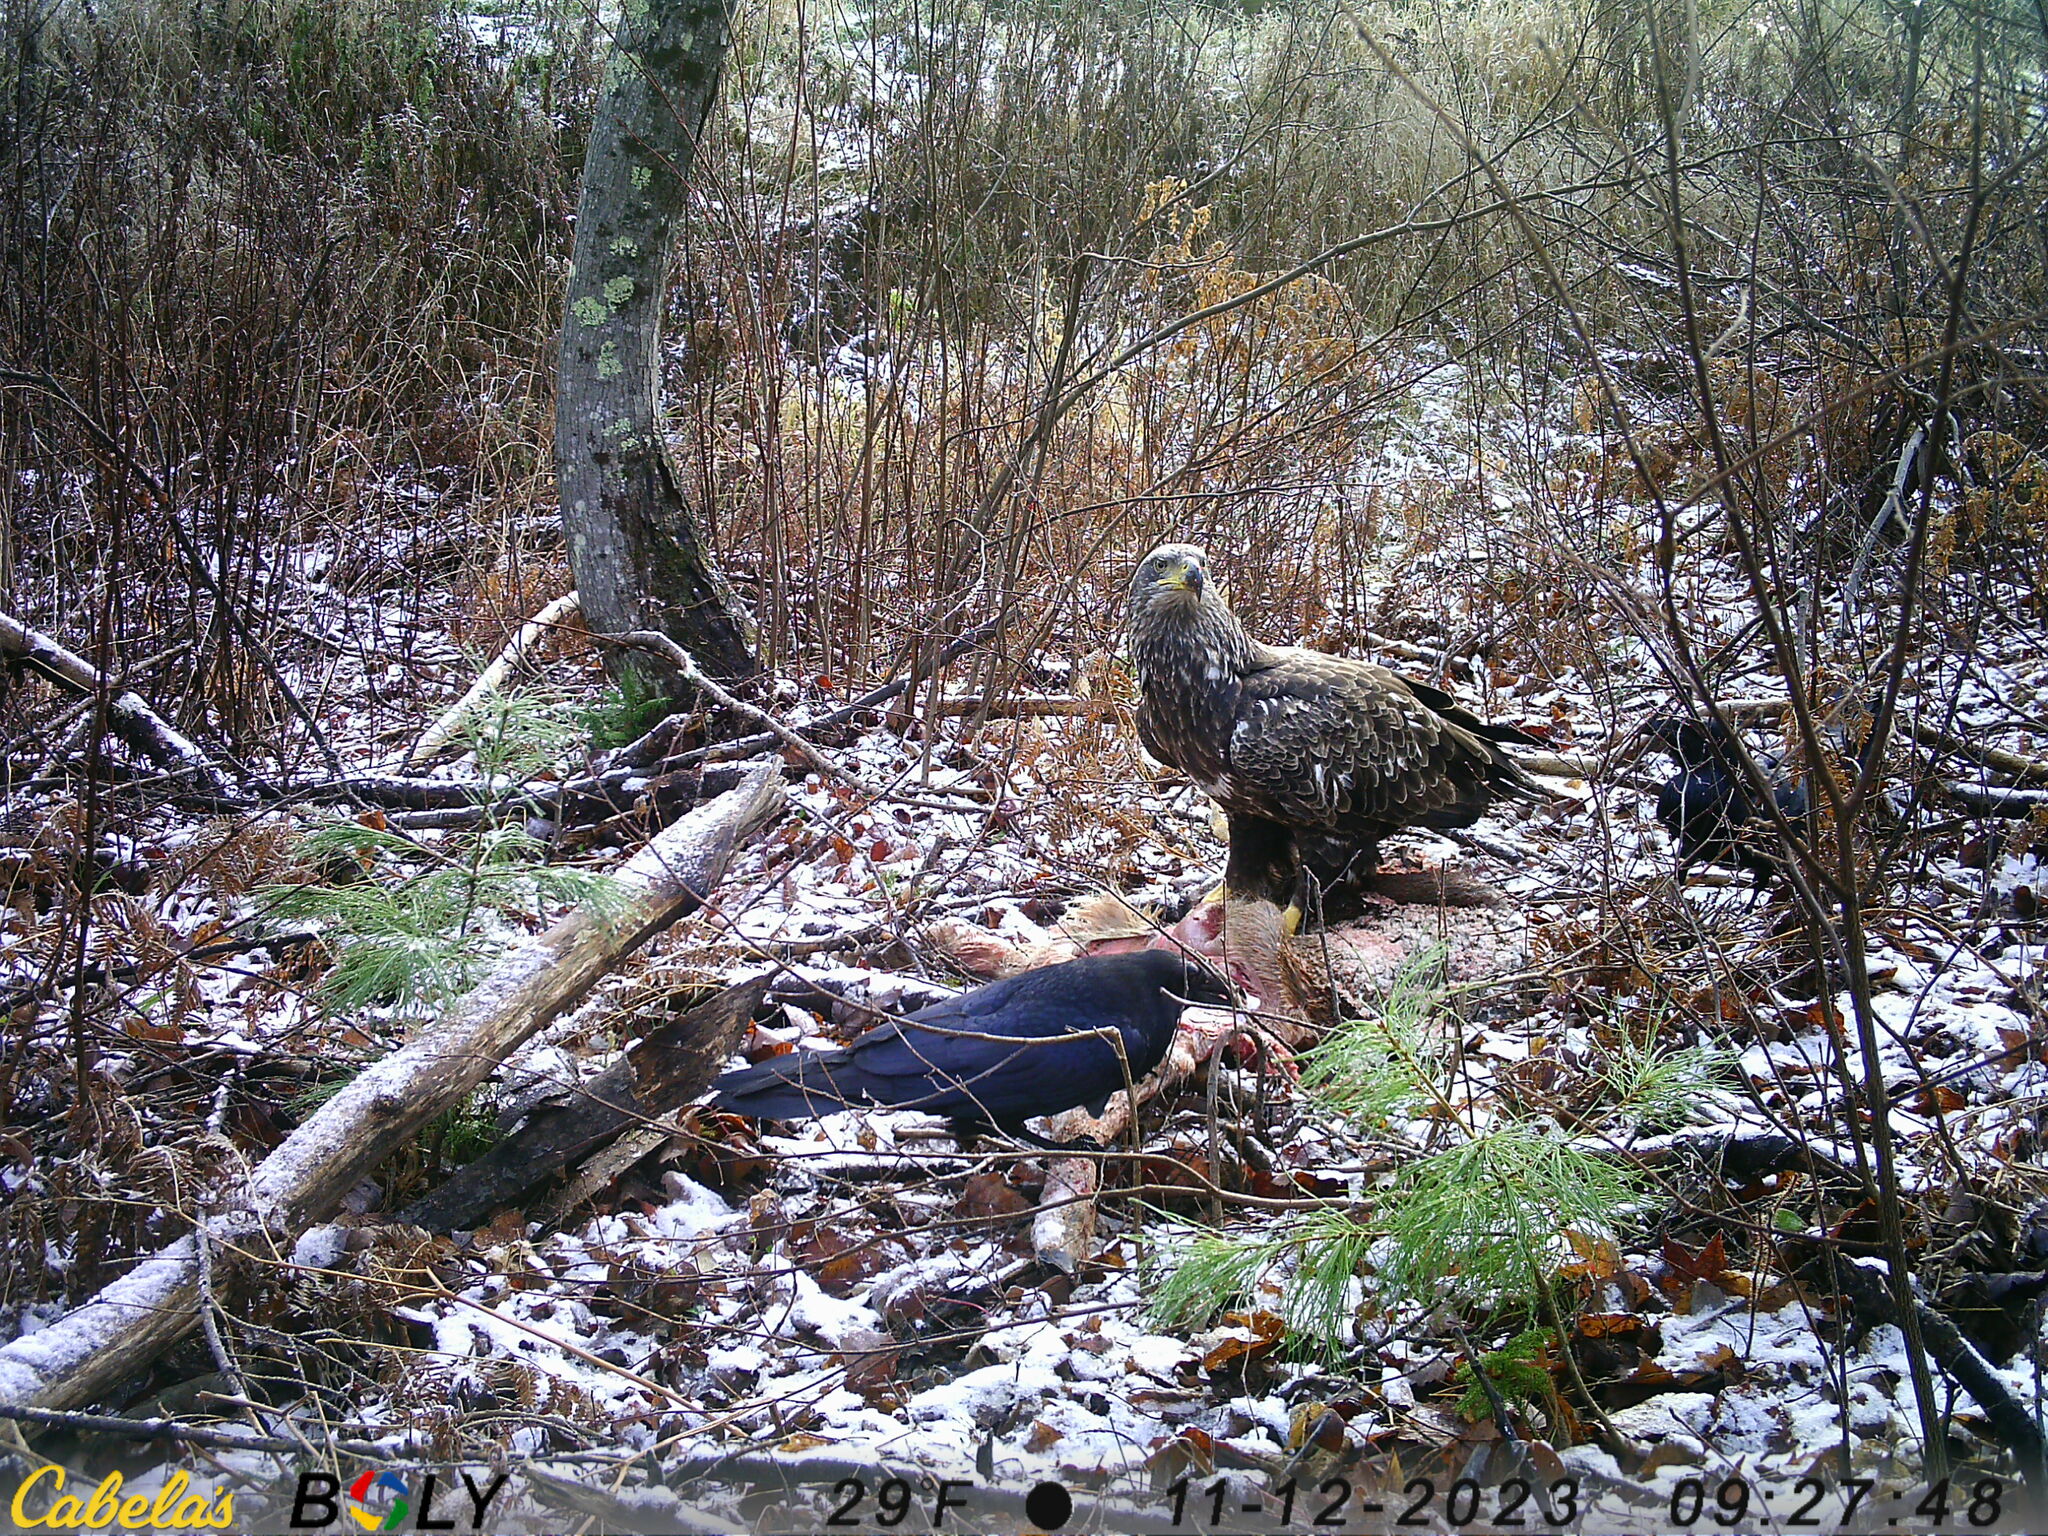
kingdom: Animalia
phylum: Chordata
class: Aves
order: Accipitriformes
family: Accipitridae
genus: Haliaeetus
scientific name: Haliaeetus leucocephalus
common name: Bald eagle
